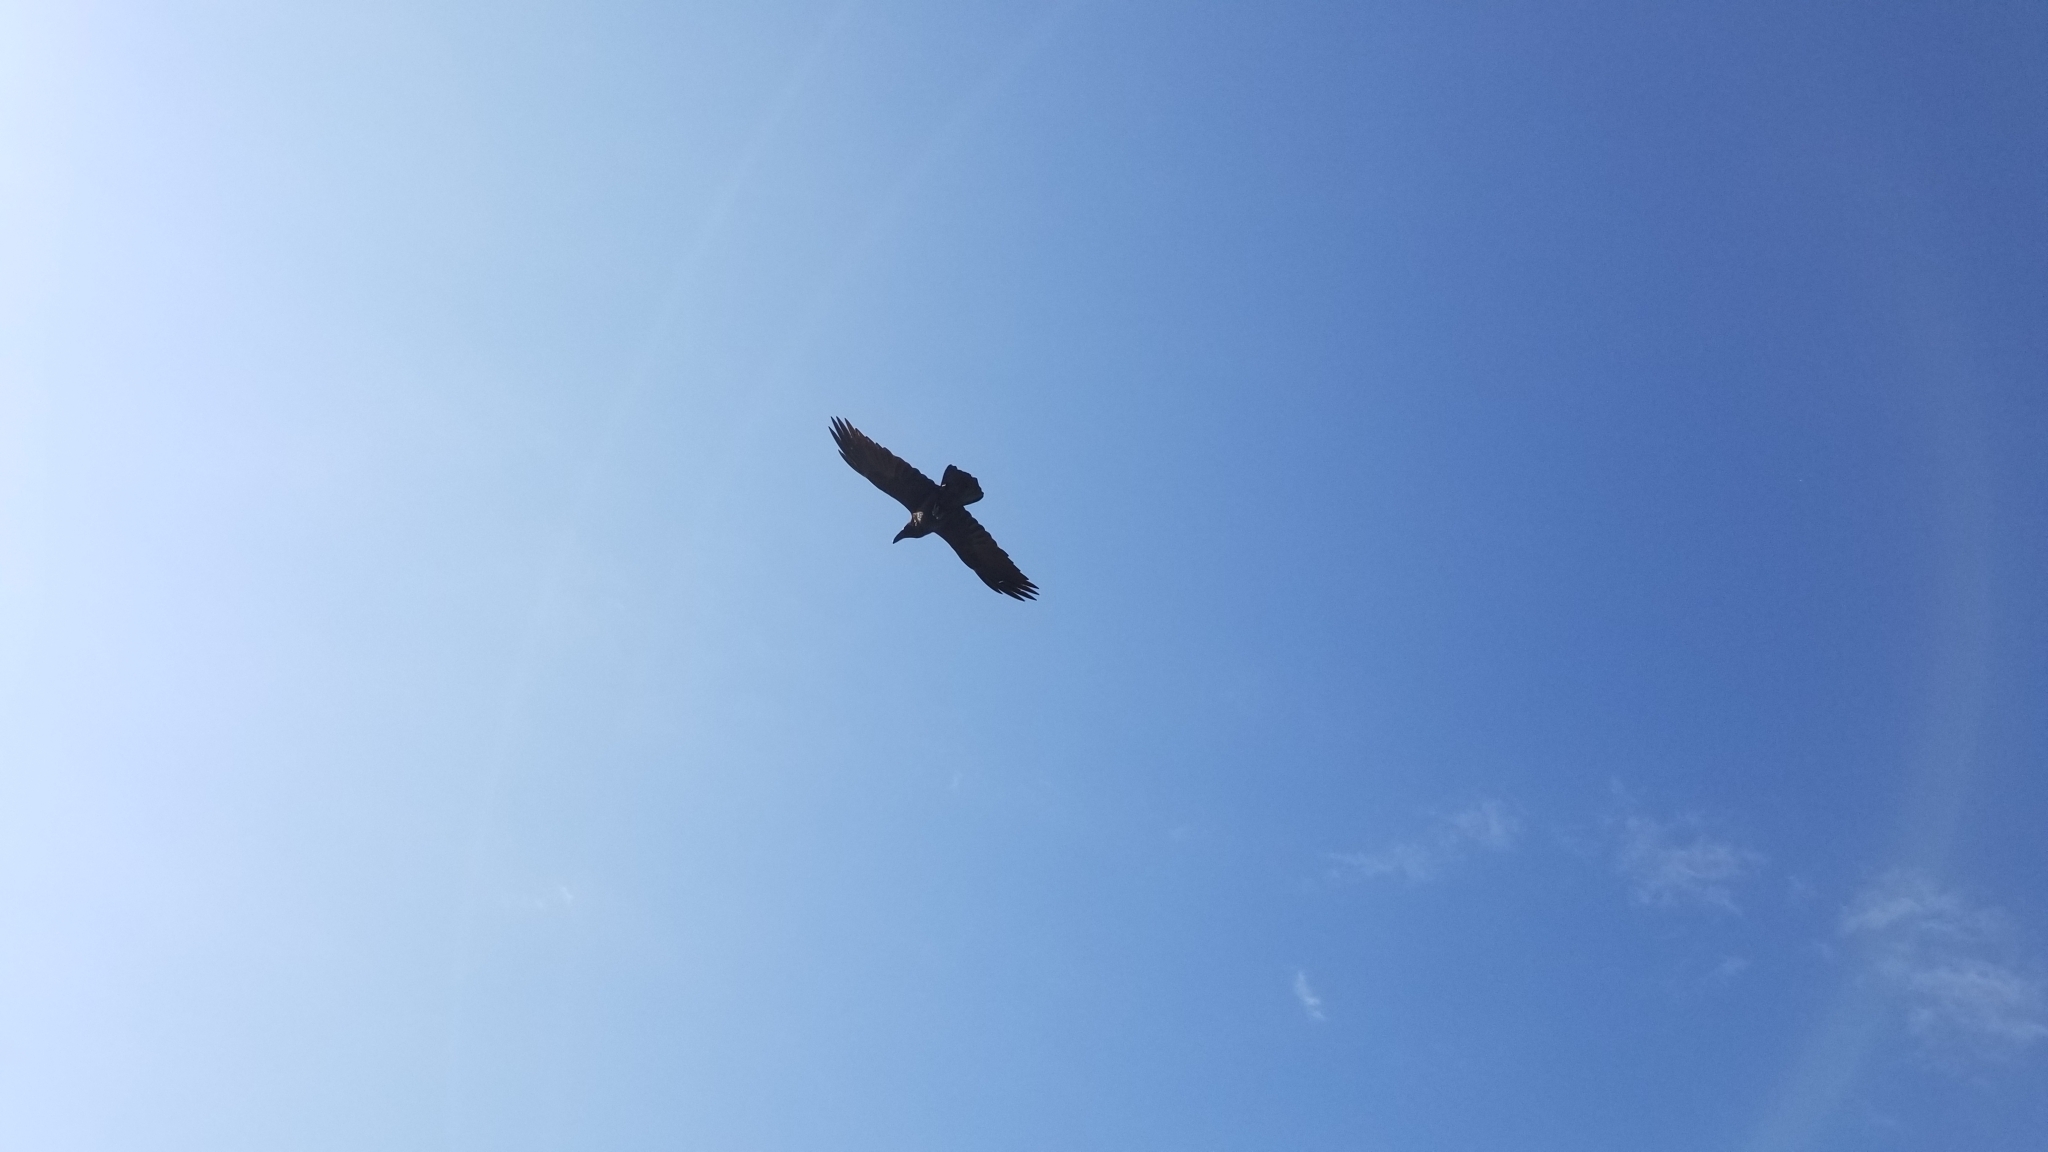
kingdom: Animalia
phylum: Chordata
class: Aves
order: Passeriformes
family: Corvidae
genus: Corvus
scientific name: Corvus corax
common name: Common raven
